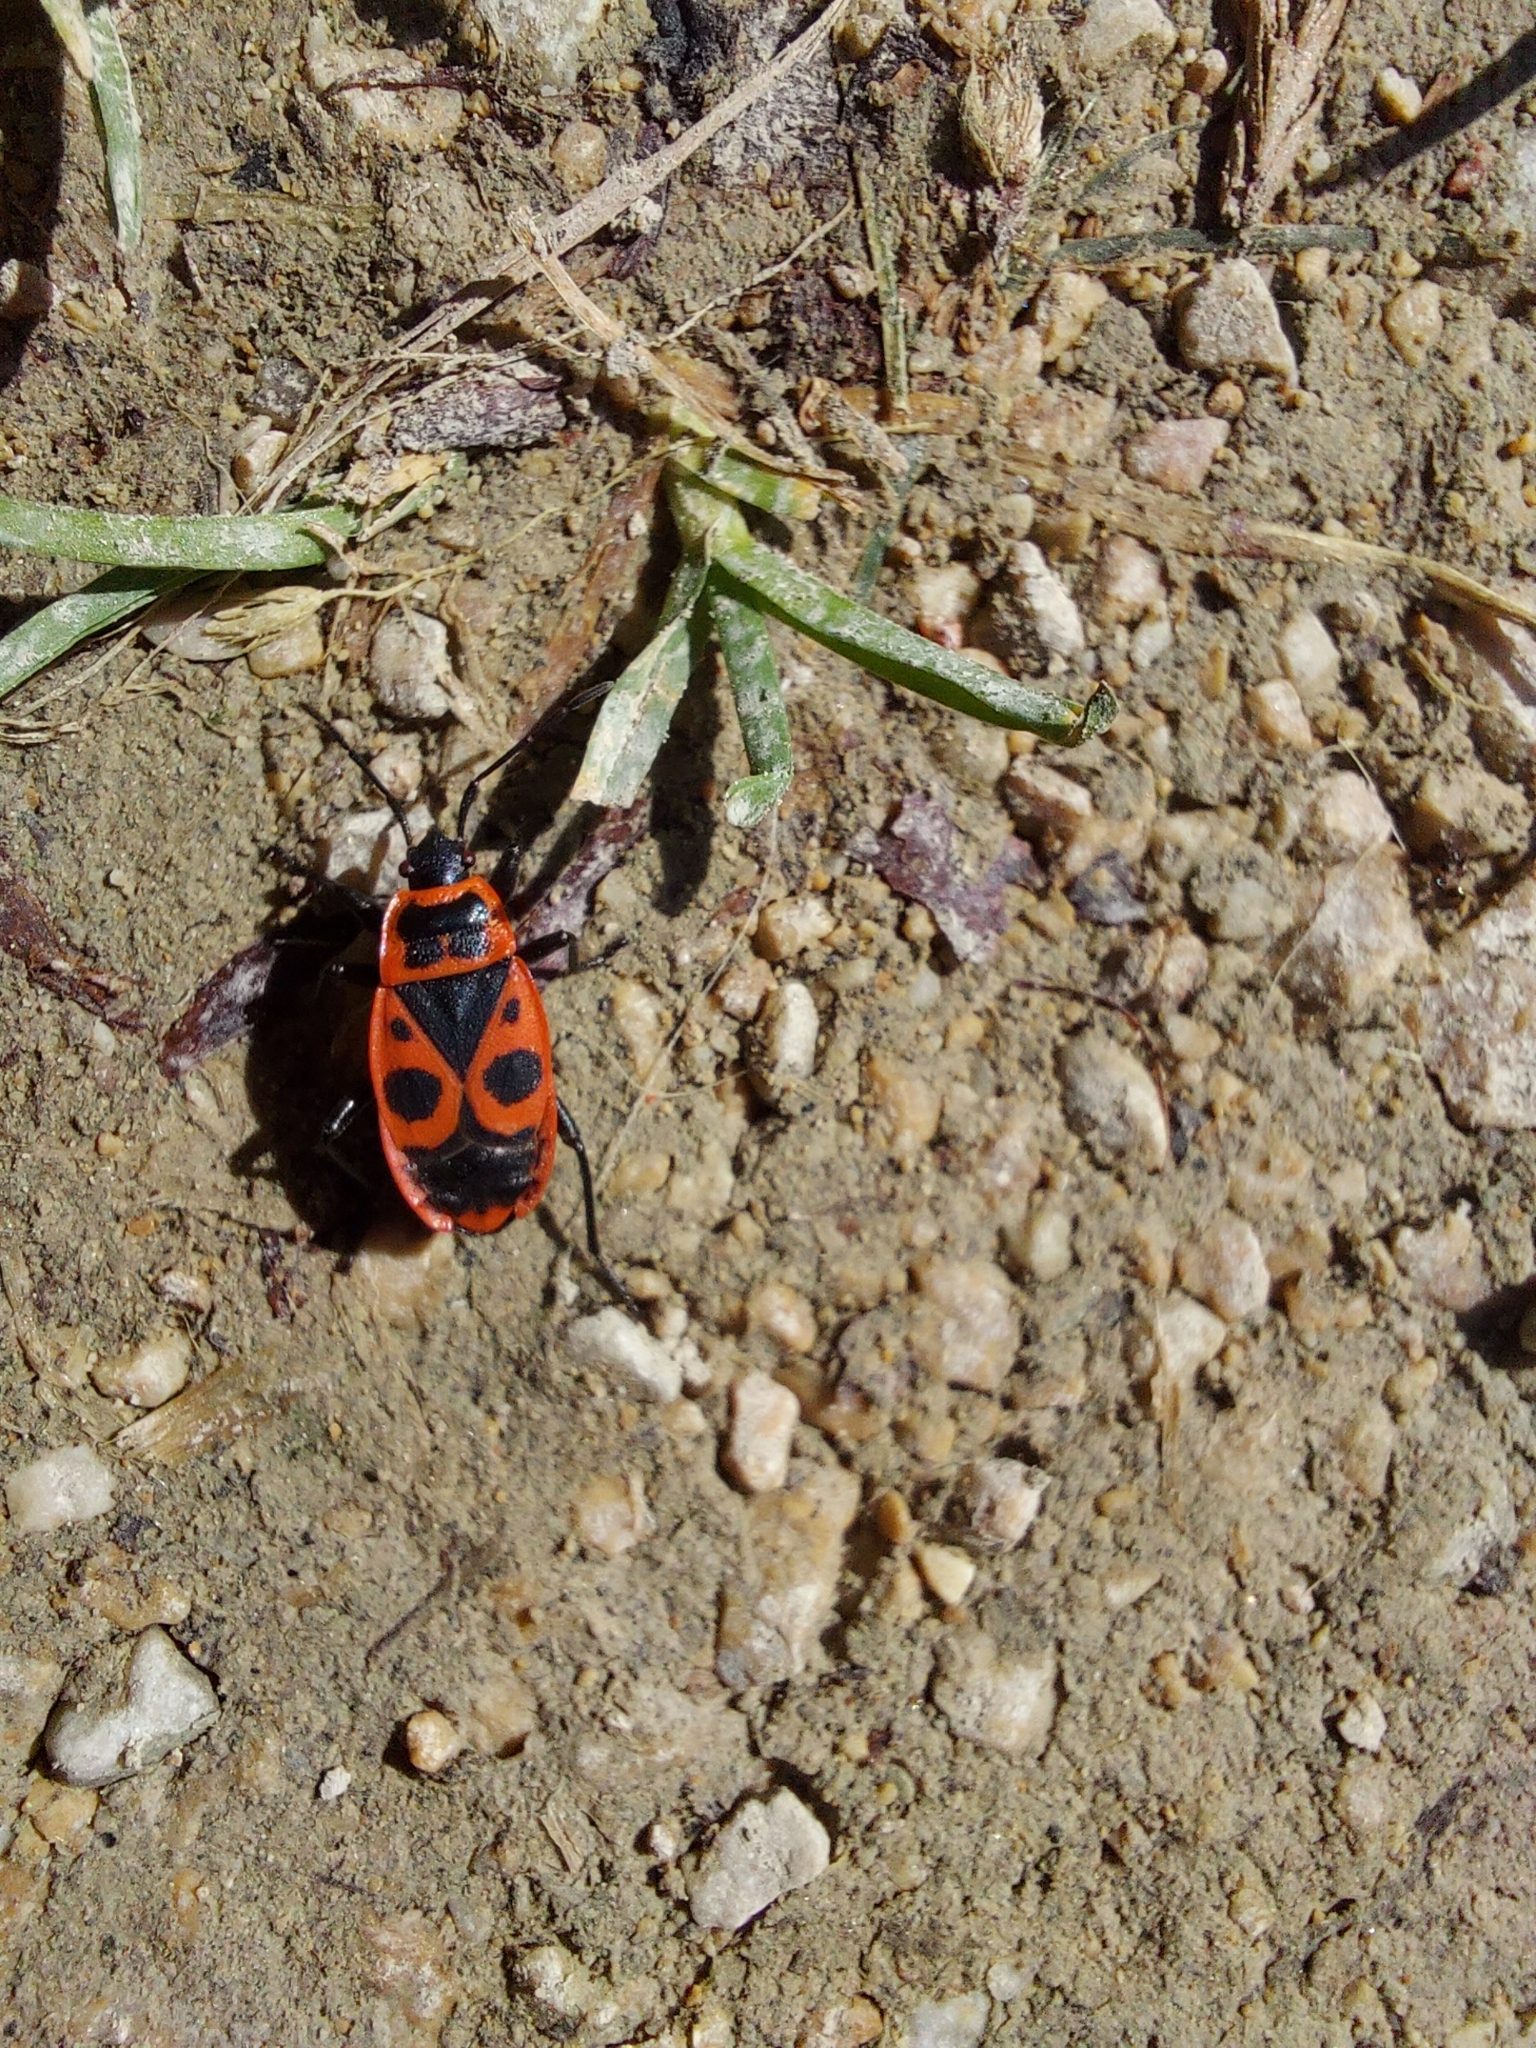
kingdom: Animalia
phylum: Arthropoda
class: Insecta
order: Hemiptera
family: Pyrrhocoridae
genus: Pyrrhocoris
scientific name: Pyrrhocoris apterus
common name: Firebug
